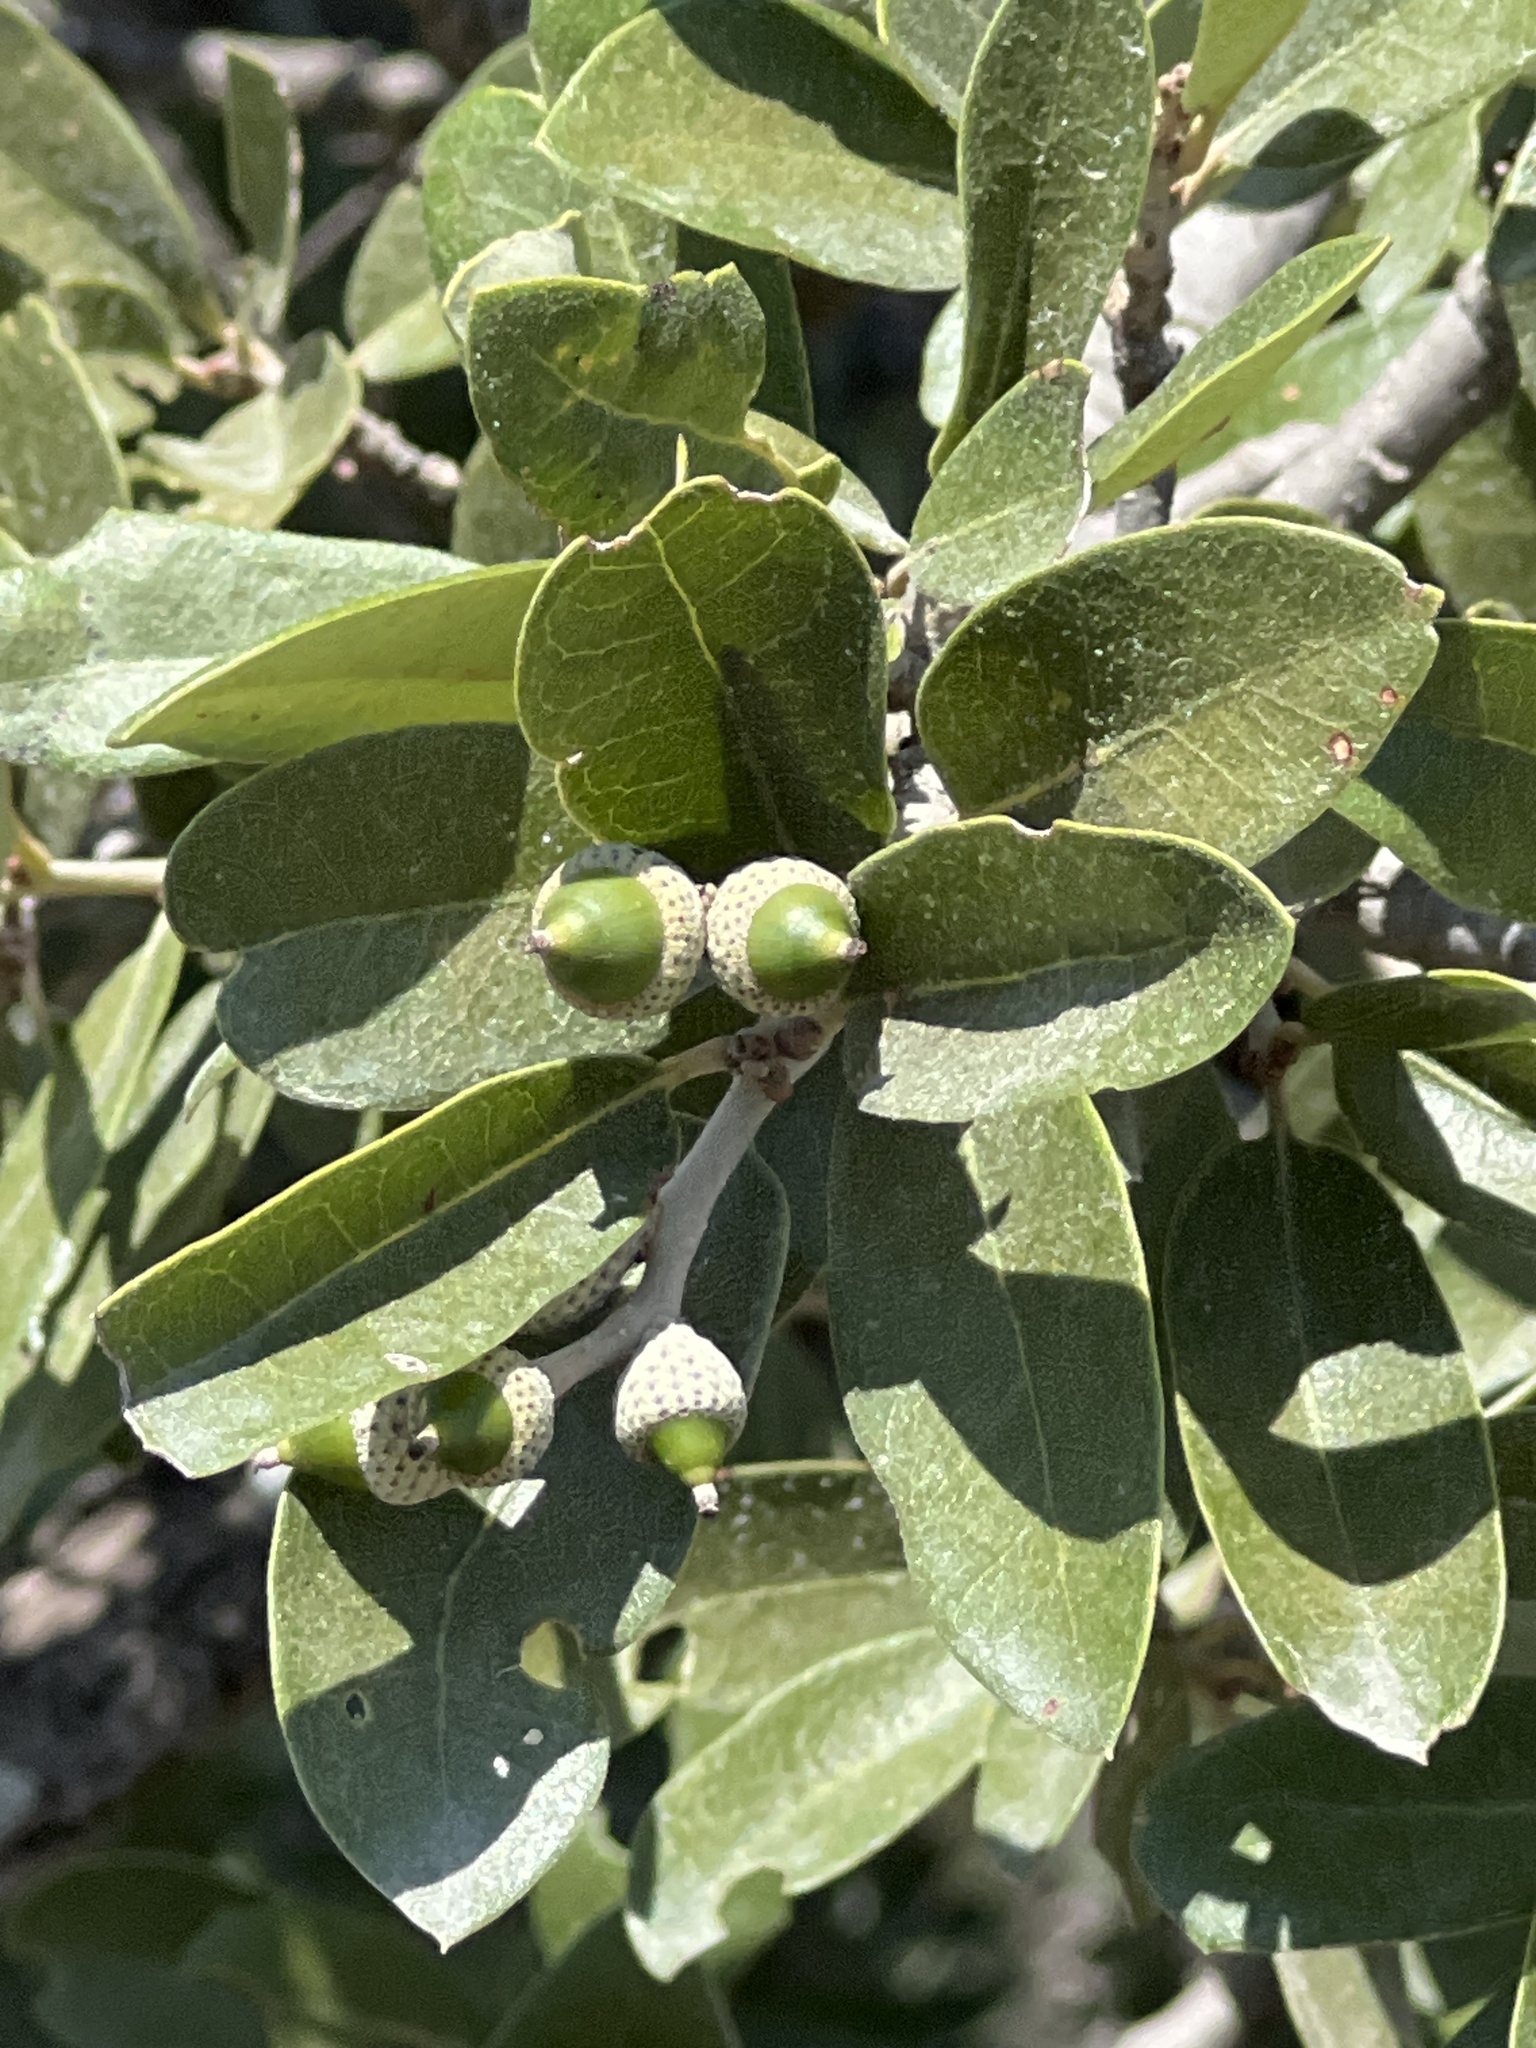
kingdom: Plantae
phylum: Tracheophyta
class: Magnoliopsida
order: Fagales
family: Fagaceae
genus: Quercus
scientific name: Quercus fusiformis
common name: Texas live oak
